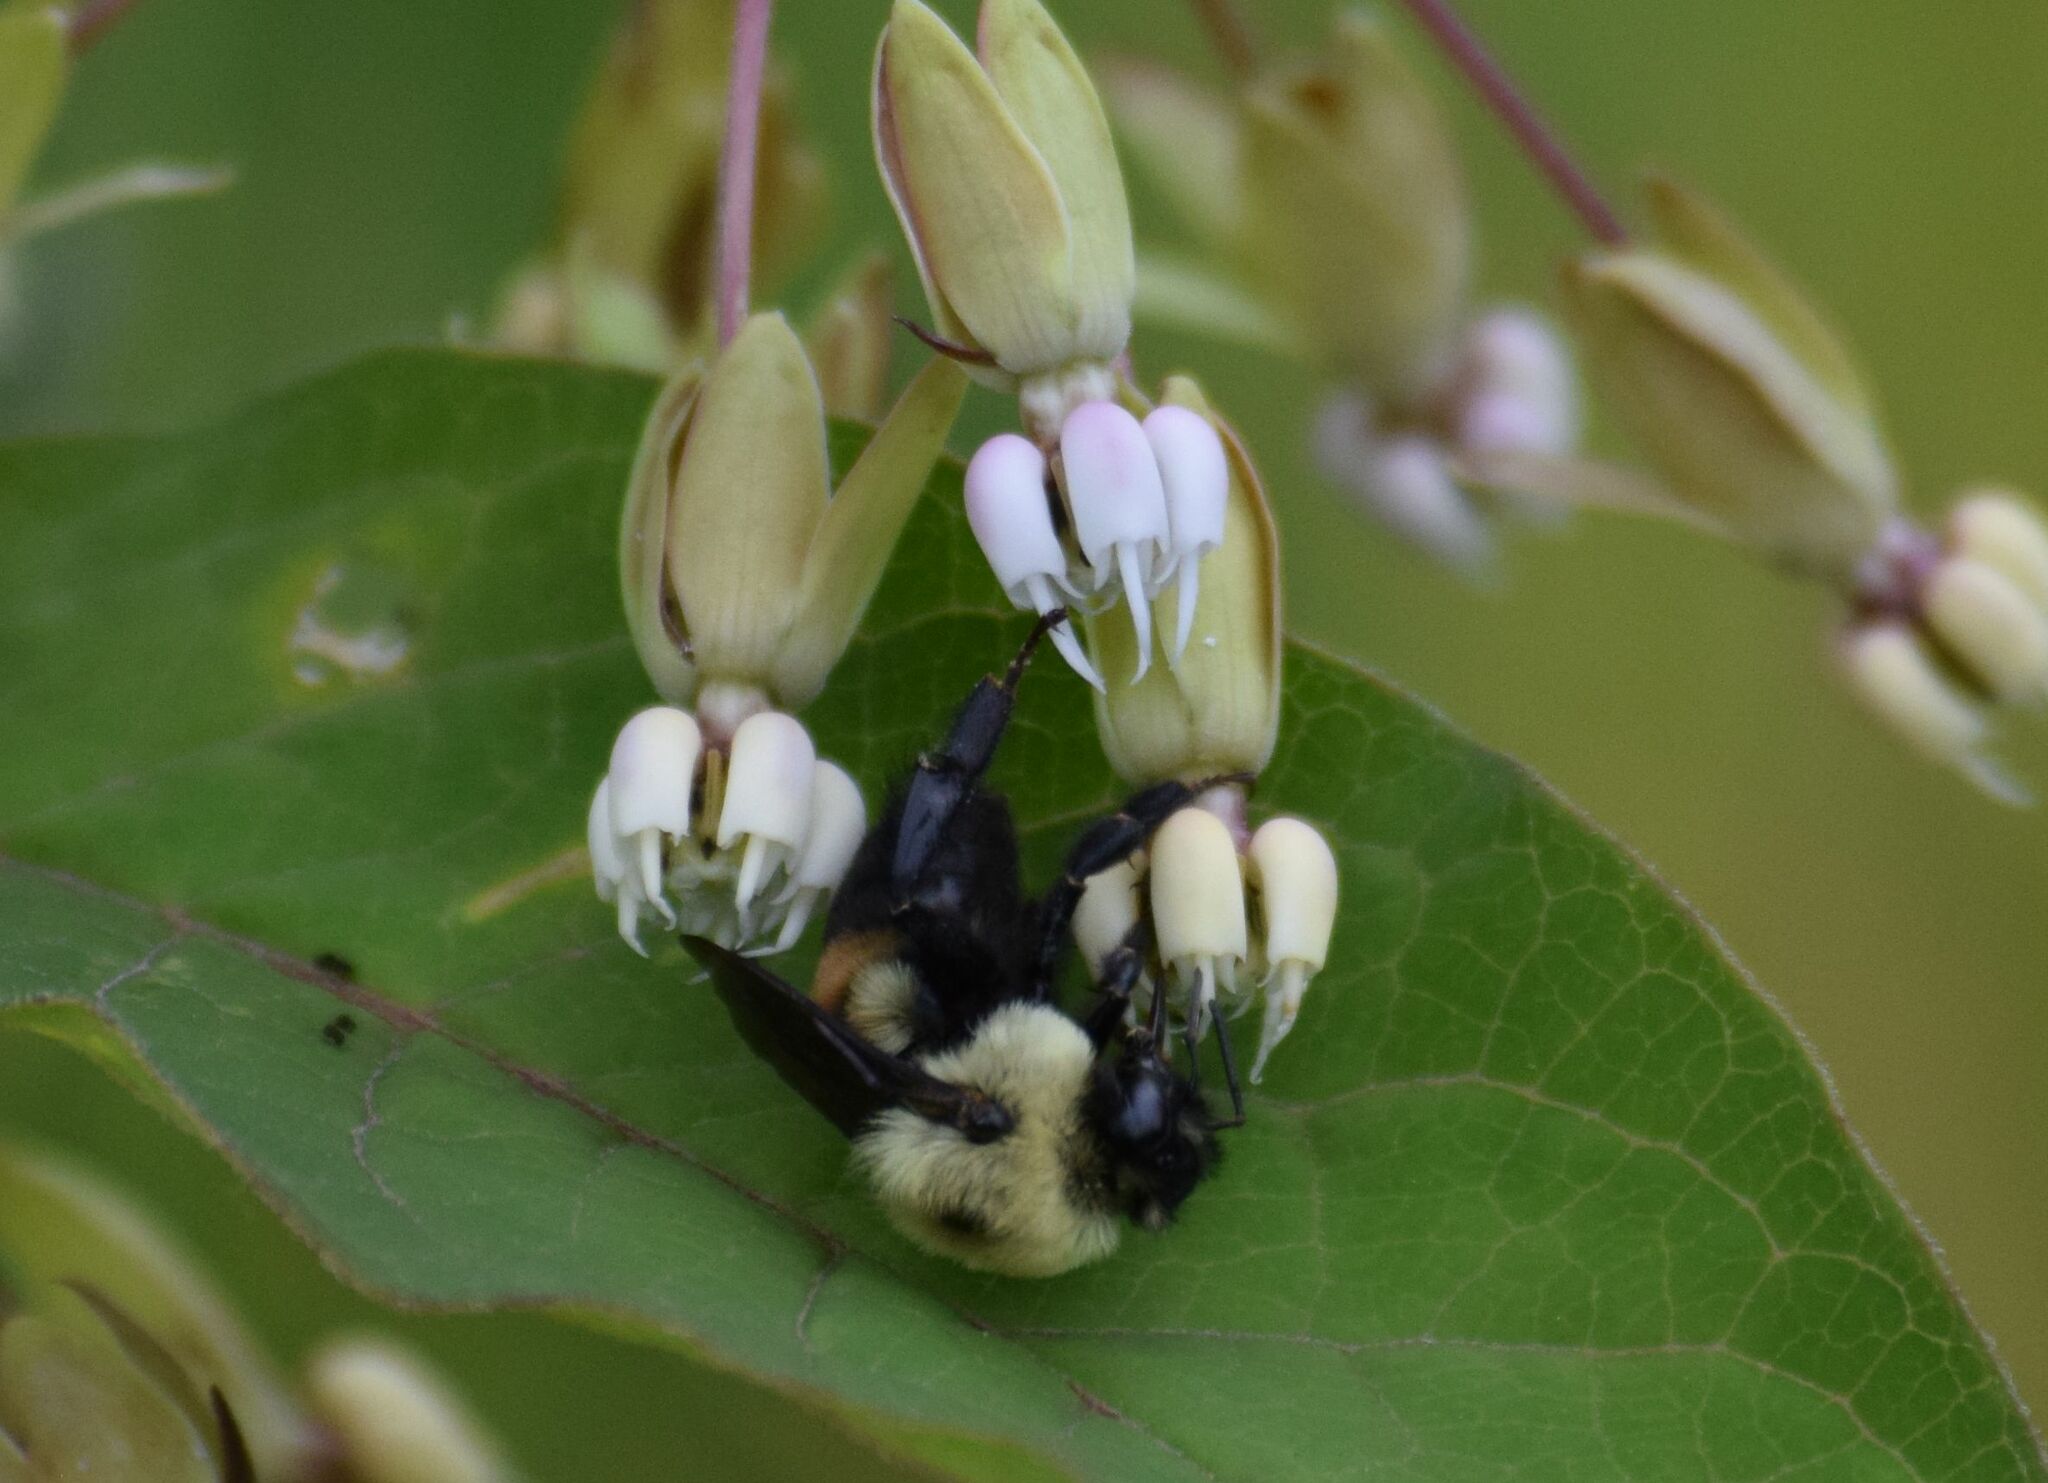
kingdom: Animalia
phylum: Arthropoda
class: Insecta
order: Hymenoptera
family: Apidae
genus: Bombus
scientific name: Bombus griseocollis
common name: Brown-belted bumble bee
